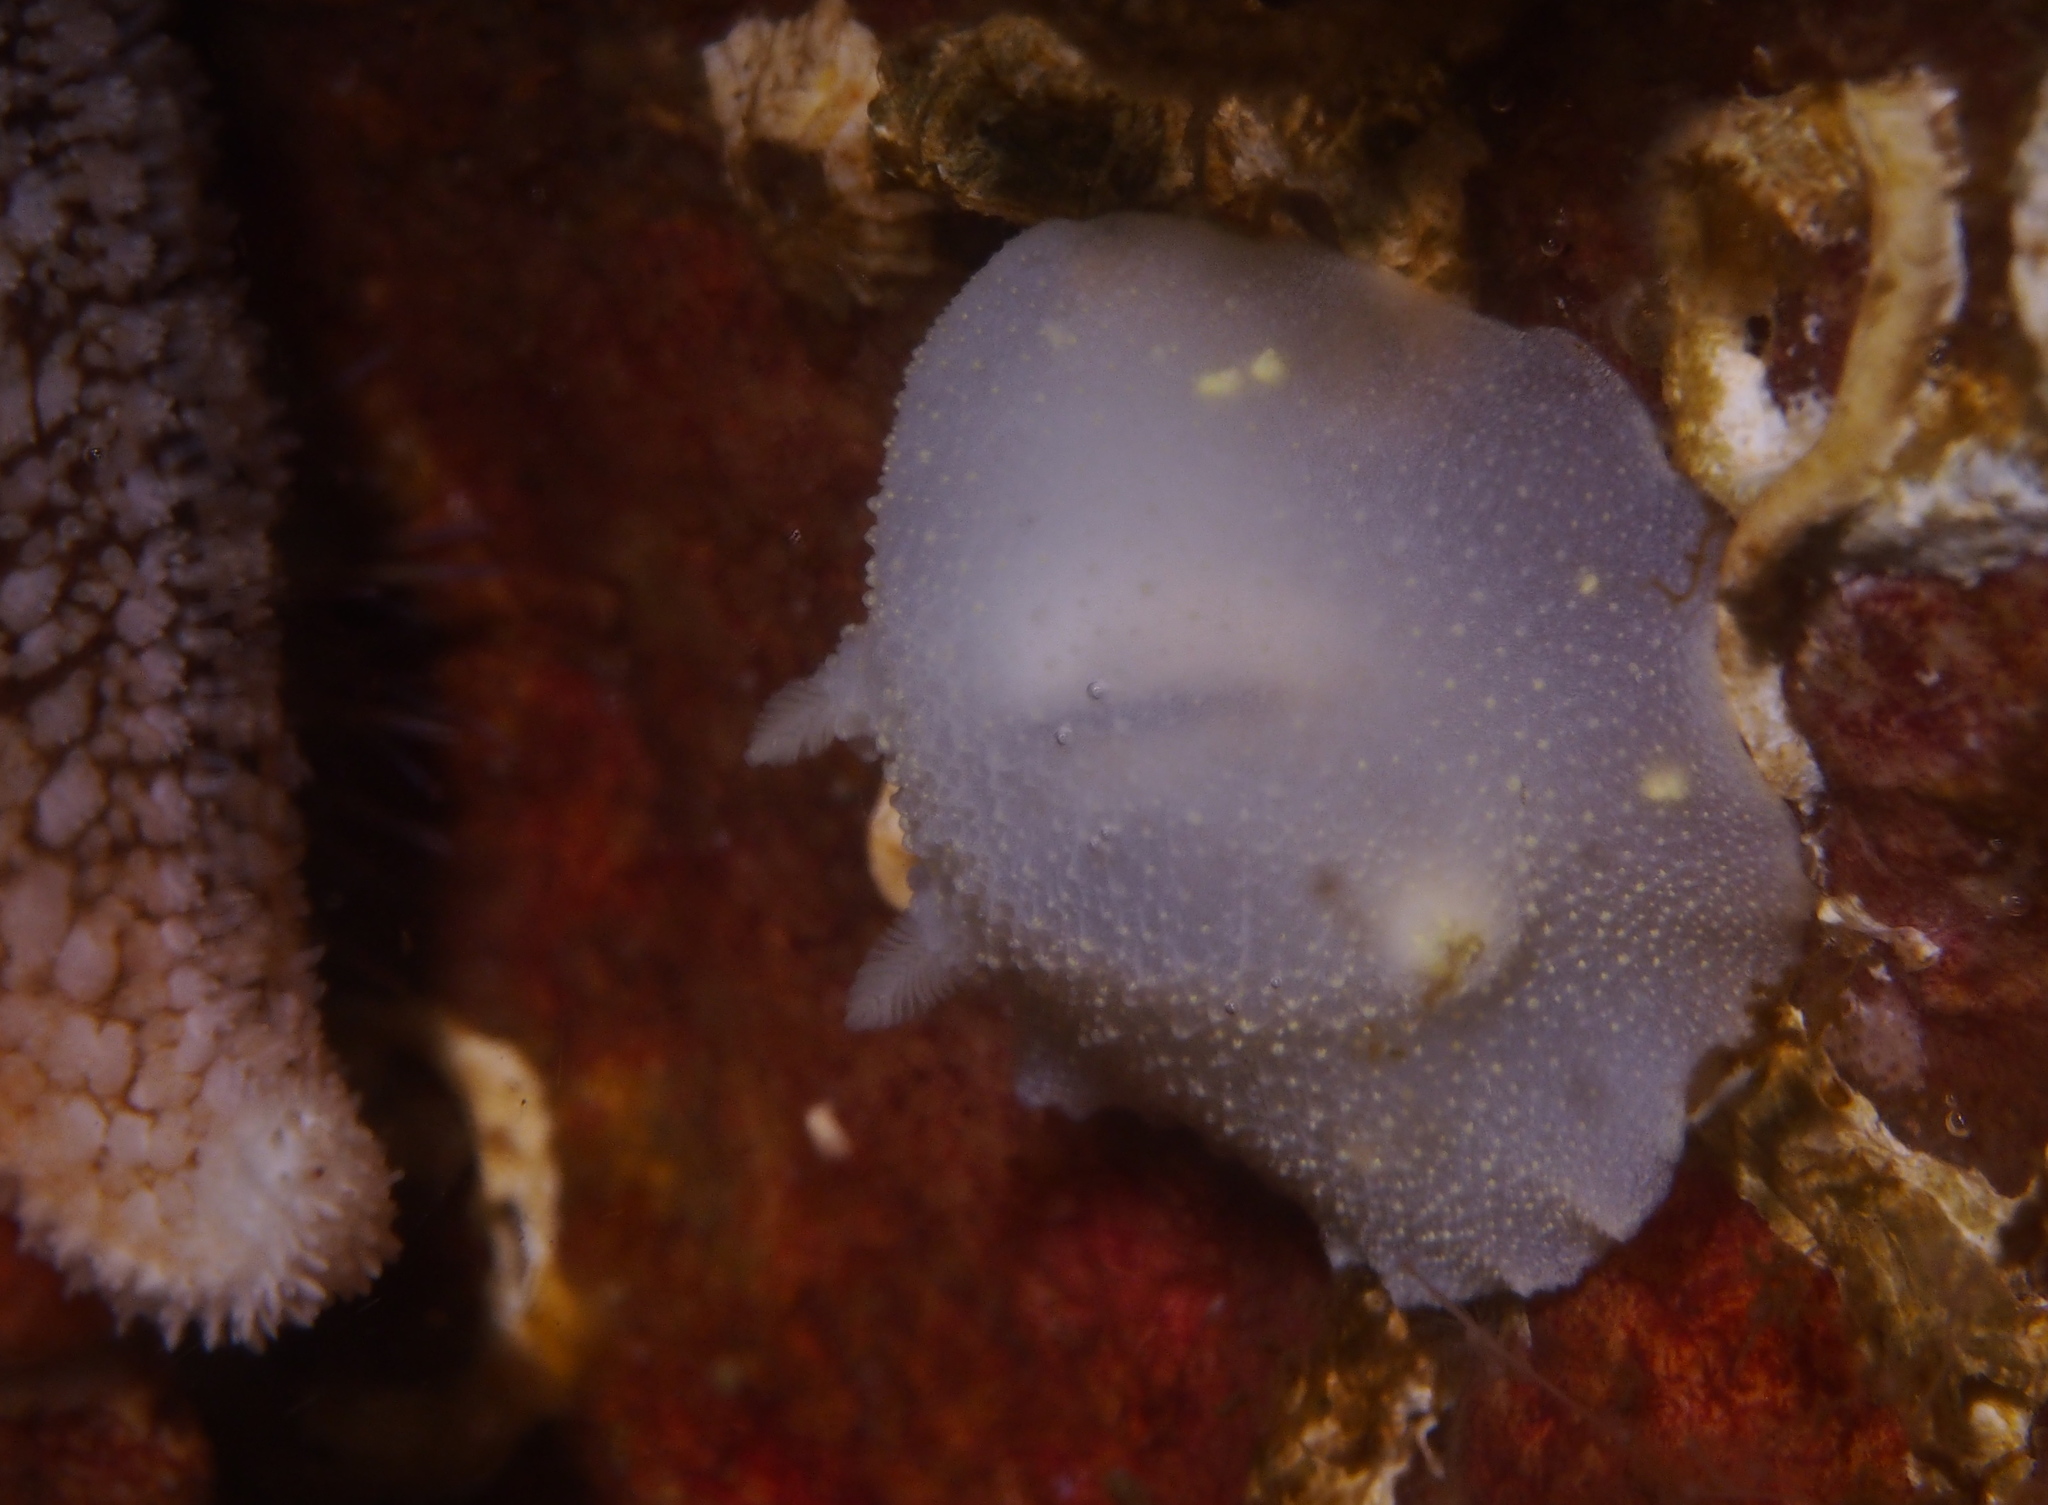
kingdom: Animalia
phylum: Mollusca
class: Gastropoda
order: Nudibranchia
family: Cadlinidae
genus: Cadlina
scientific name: Cadlina laevis
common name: White atlantic cadlina
